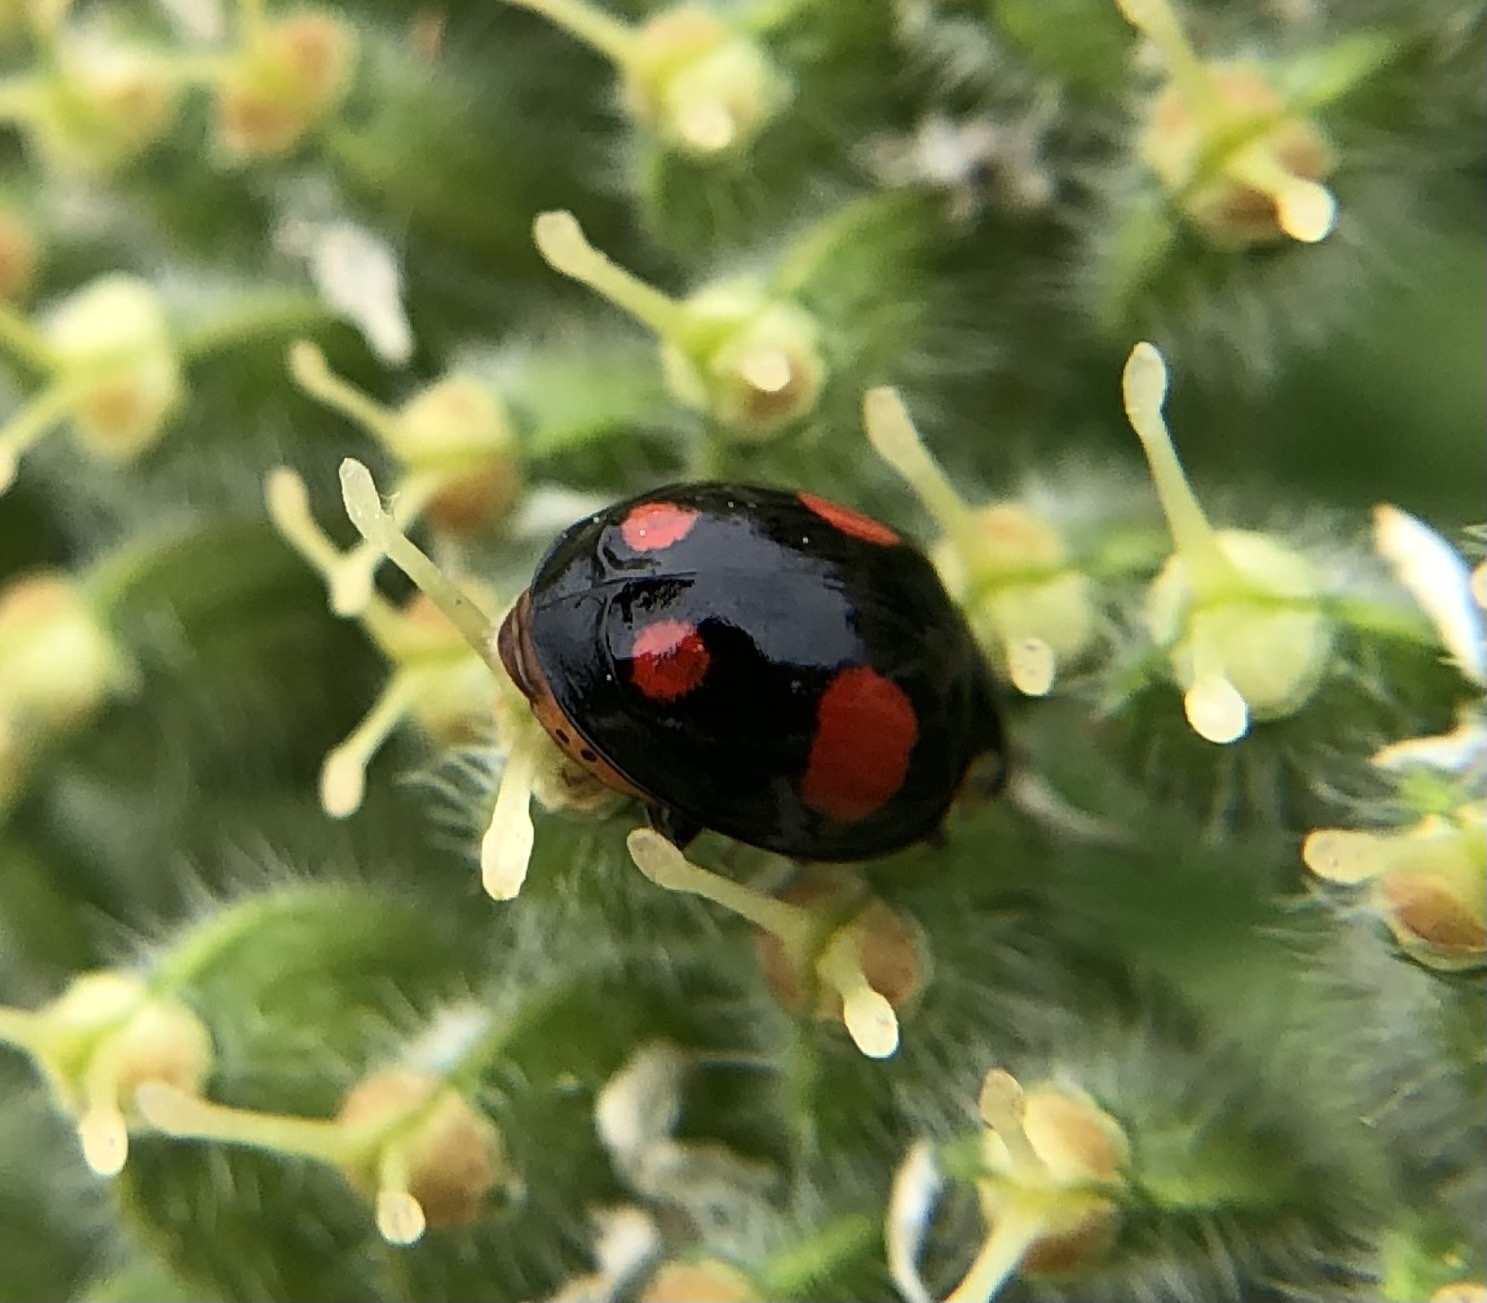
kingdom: Animalia
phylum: Arthropoda
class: Insecta
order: Coleoptera
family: Coccinellidae
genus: Harmonia
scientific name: Harmonia axyridis
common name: Harlequin ladybird
